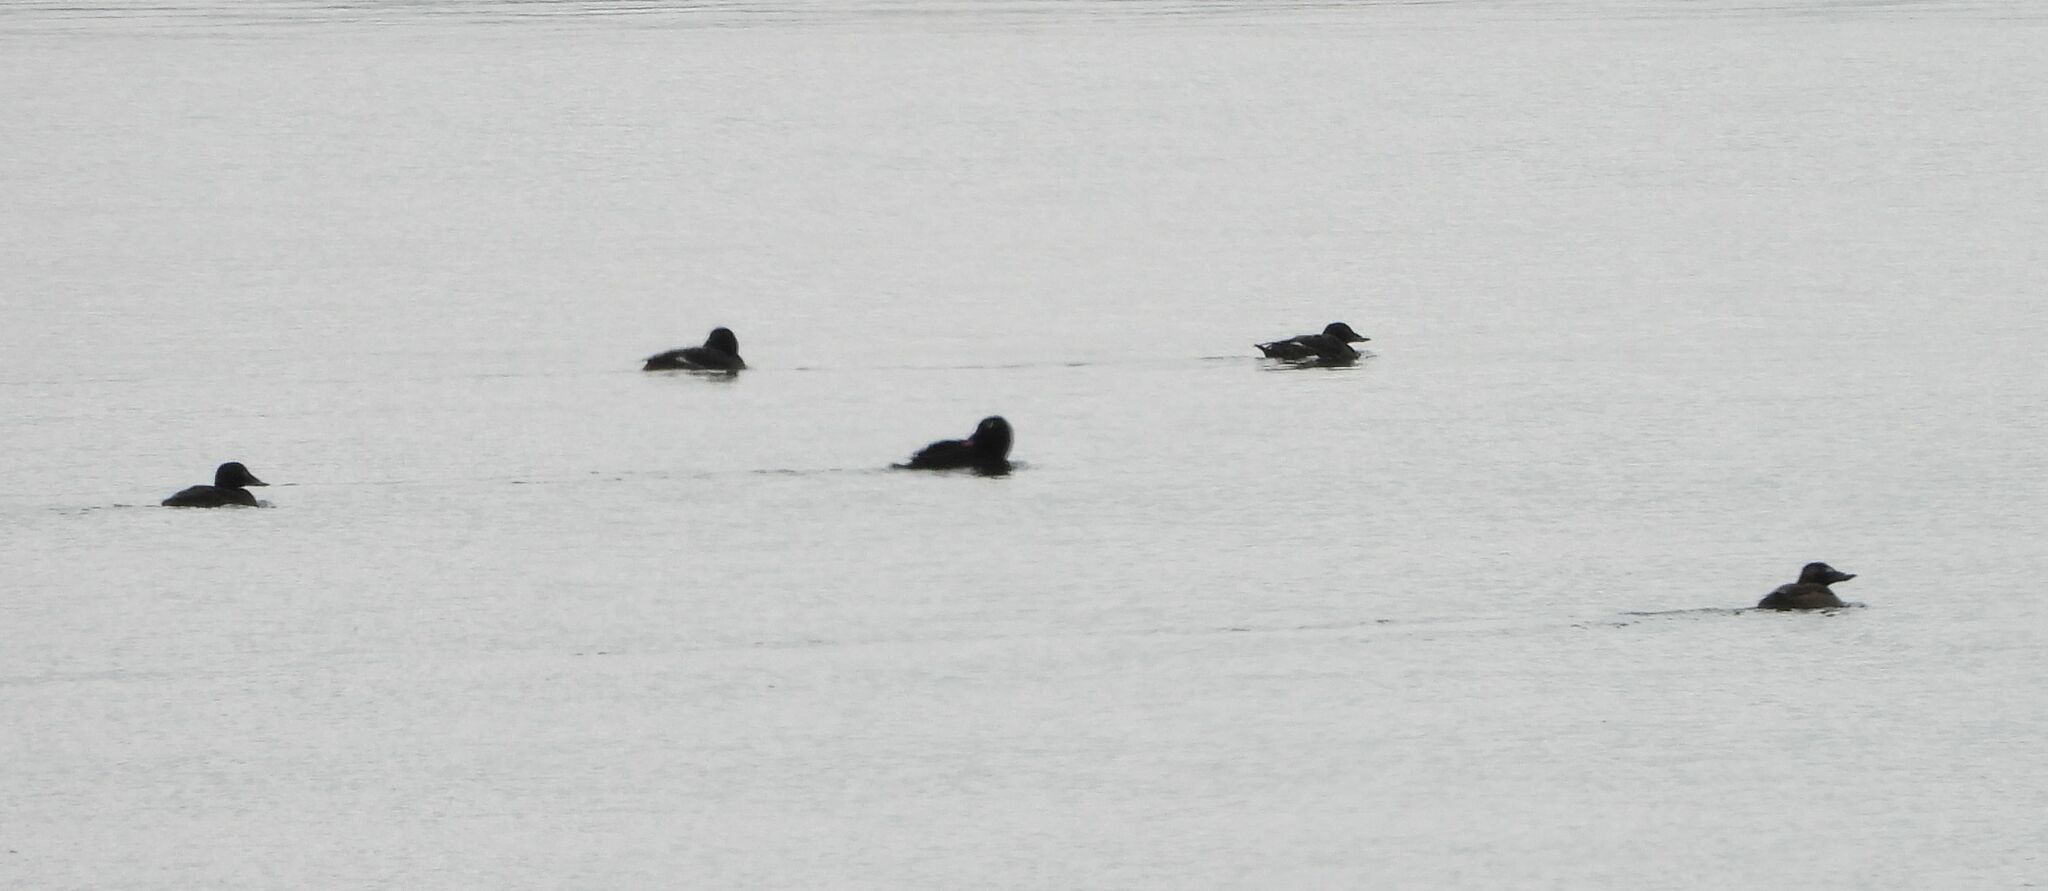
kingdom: Animalia
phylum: Chordata
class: Aves
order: Anseriformes
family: Anatidae
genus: Melanitta
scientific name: Melanitta deglandi
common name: White-winged scoter
